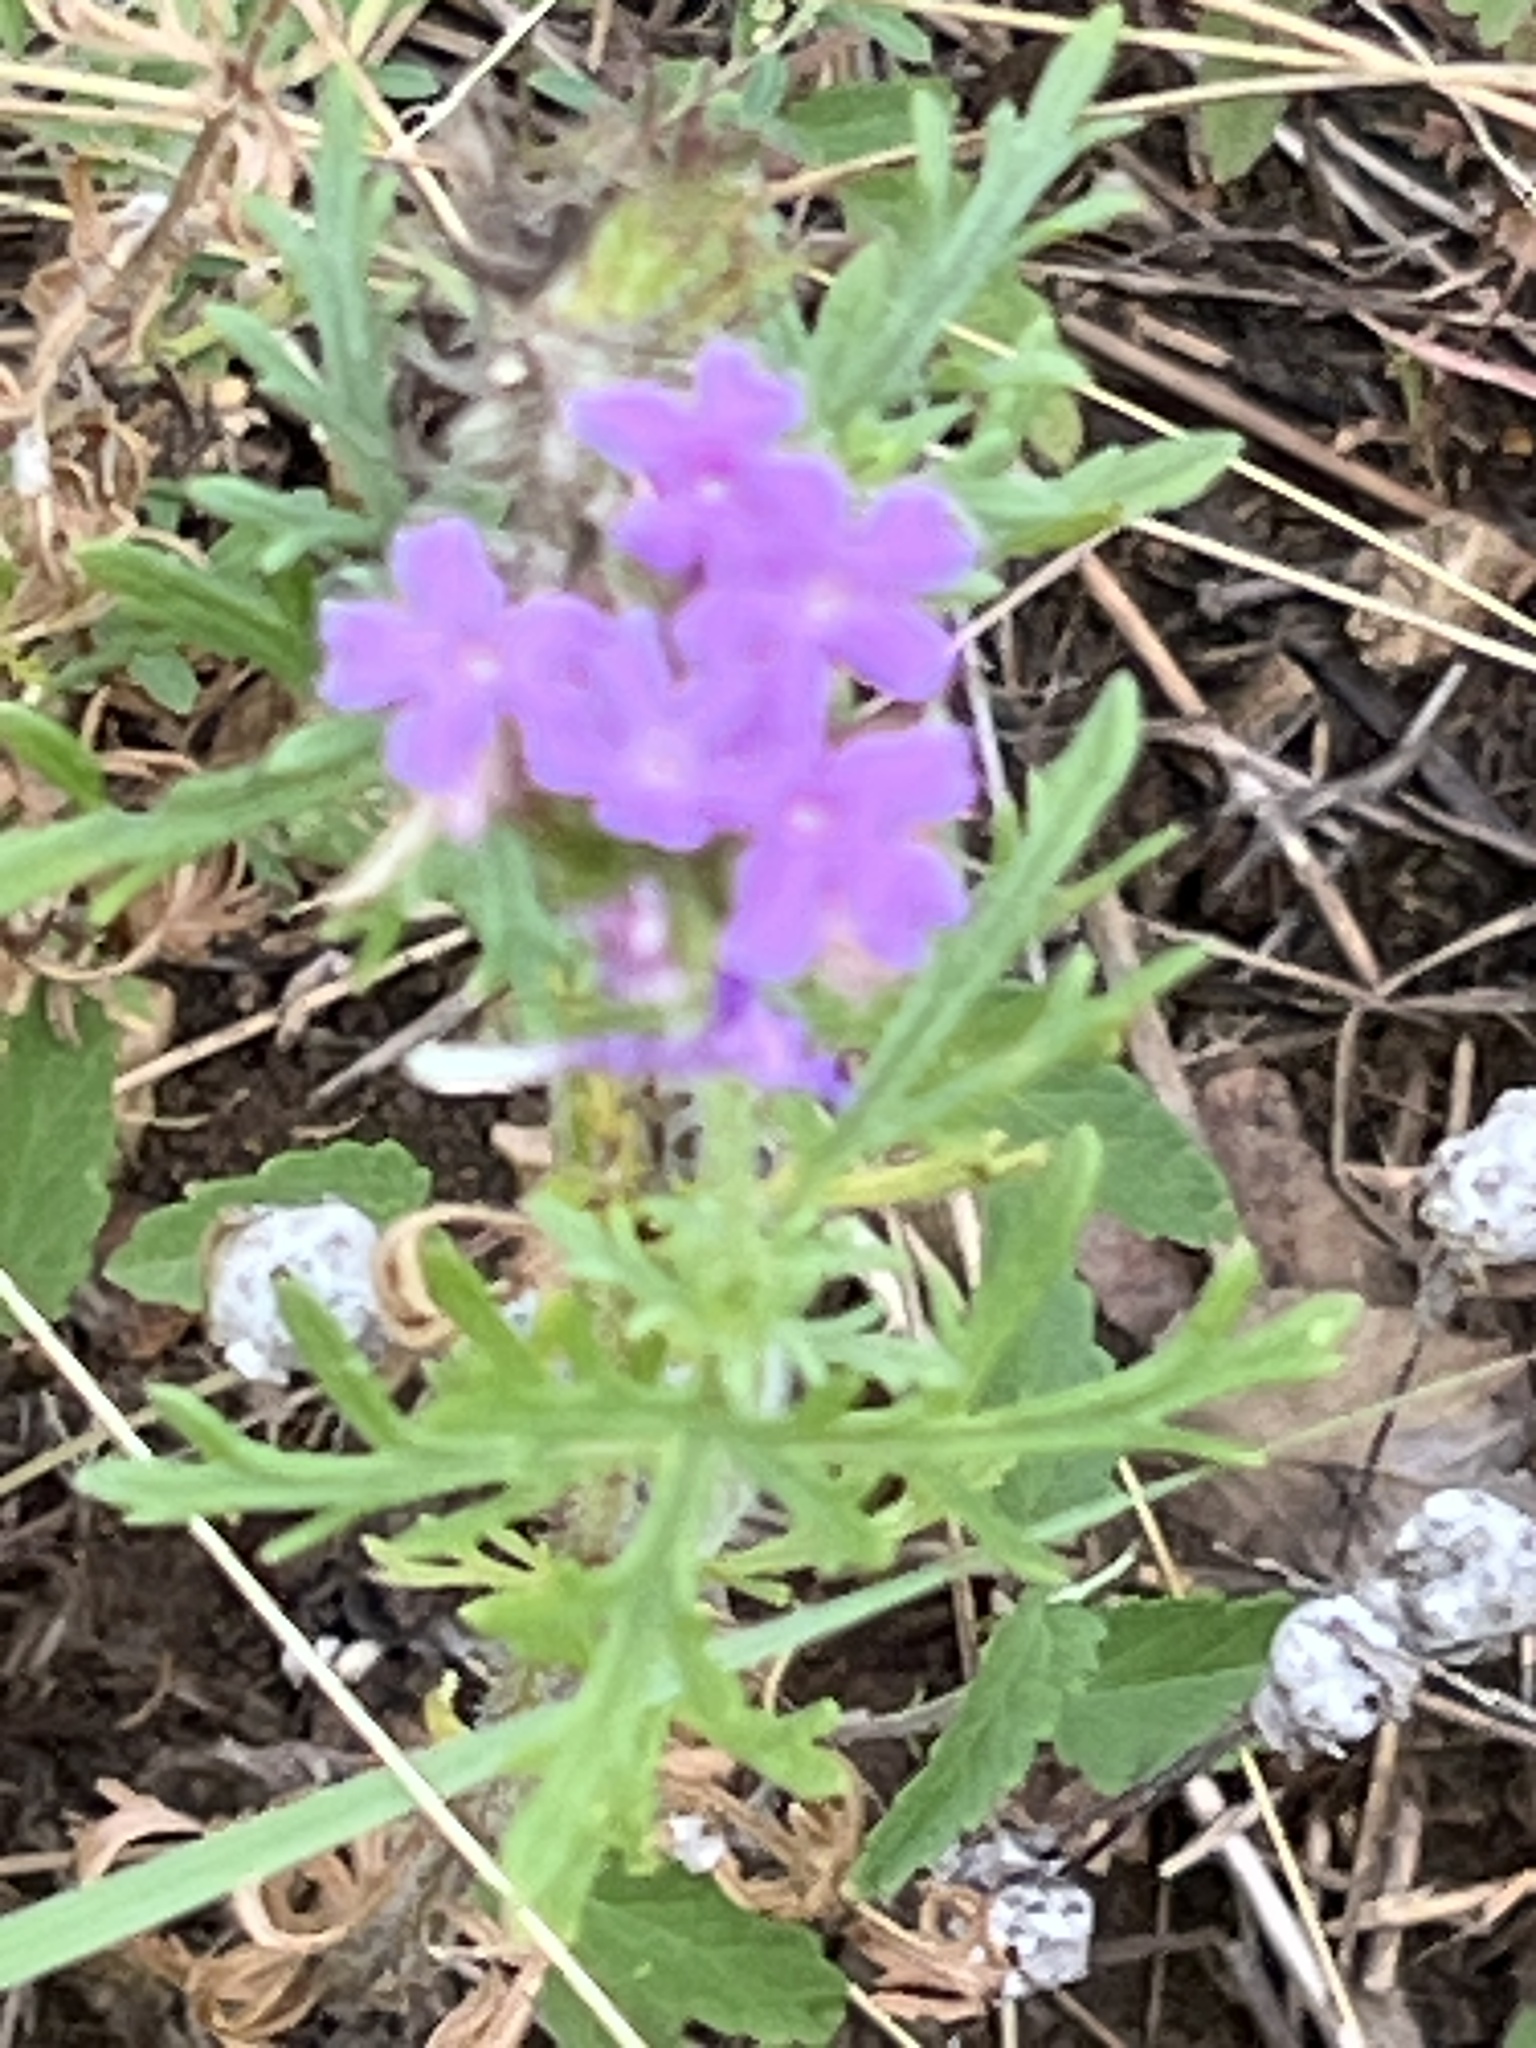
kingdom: Plantae
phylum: Tracheophyta
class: Magnoliopsida
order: Lamiales
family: Verbenaceae
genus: Verbena
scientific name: Verbena bipinnatifida
